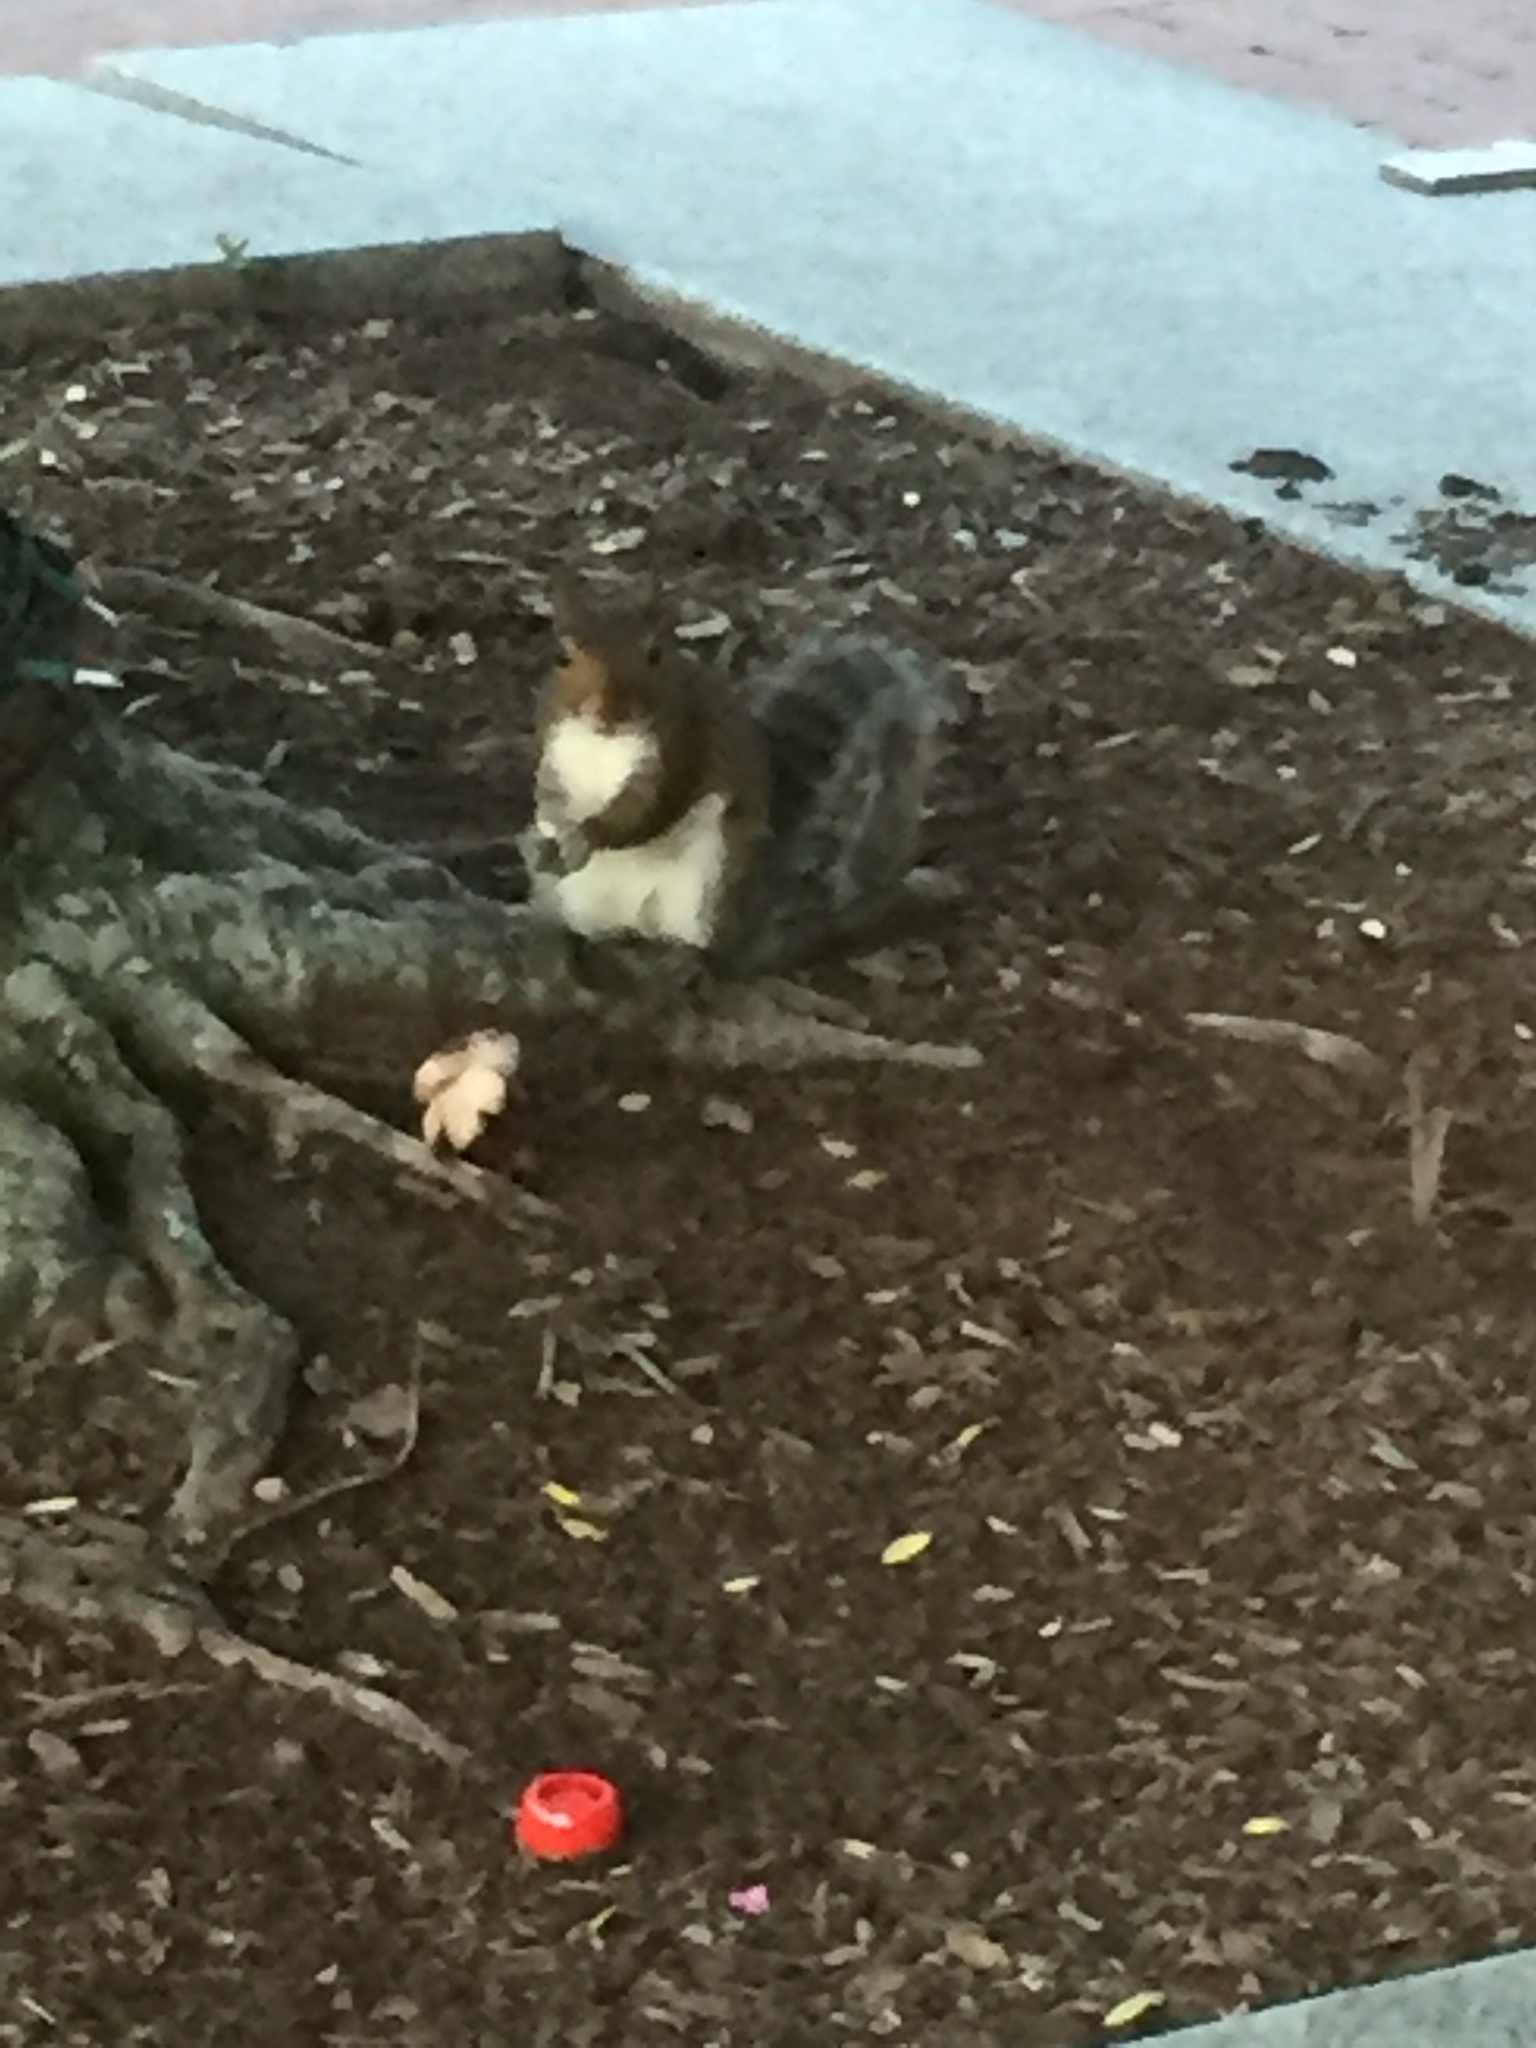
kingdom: Animalia
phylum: Chordata
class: Mammalia
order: Rodentia
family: Sciuridae
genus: Sciurus
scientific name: Sciurus carolinensis
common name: Eastern gray squirrel
